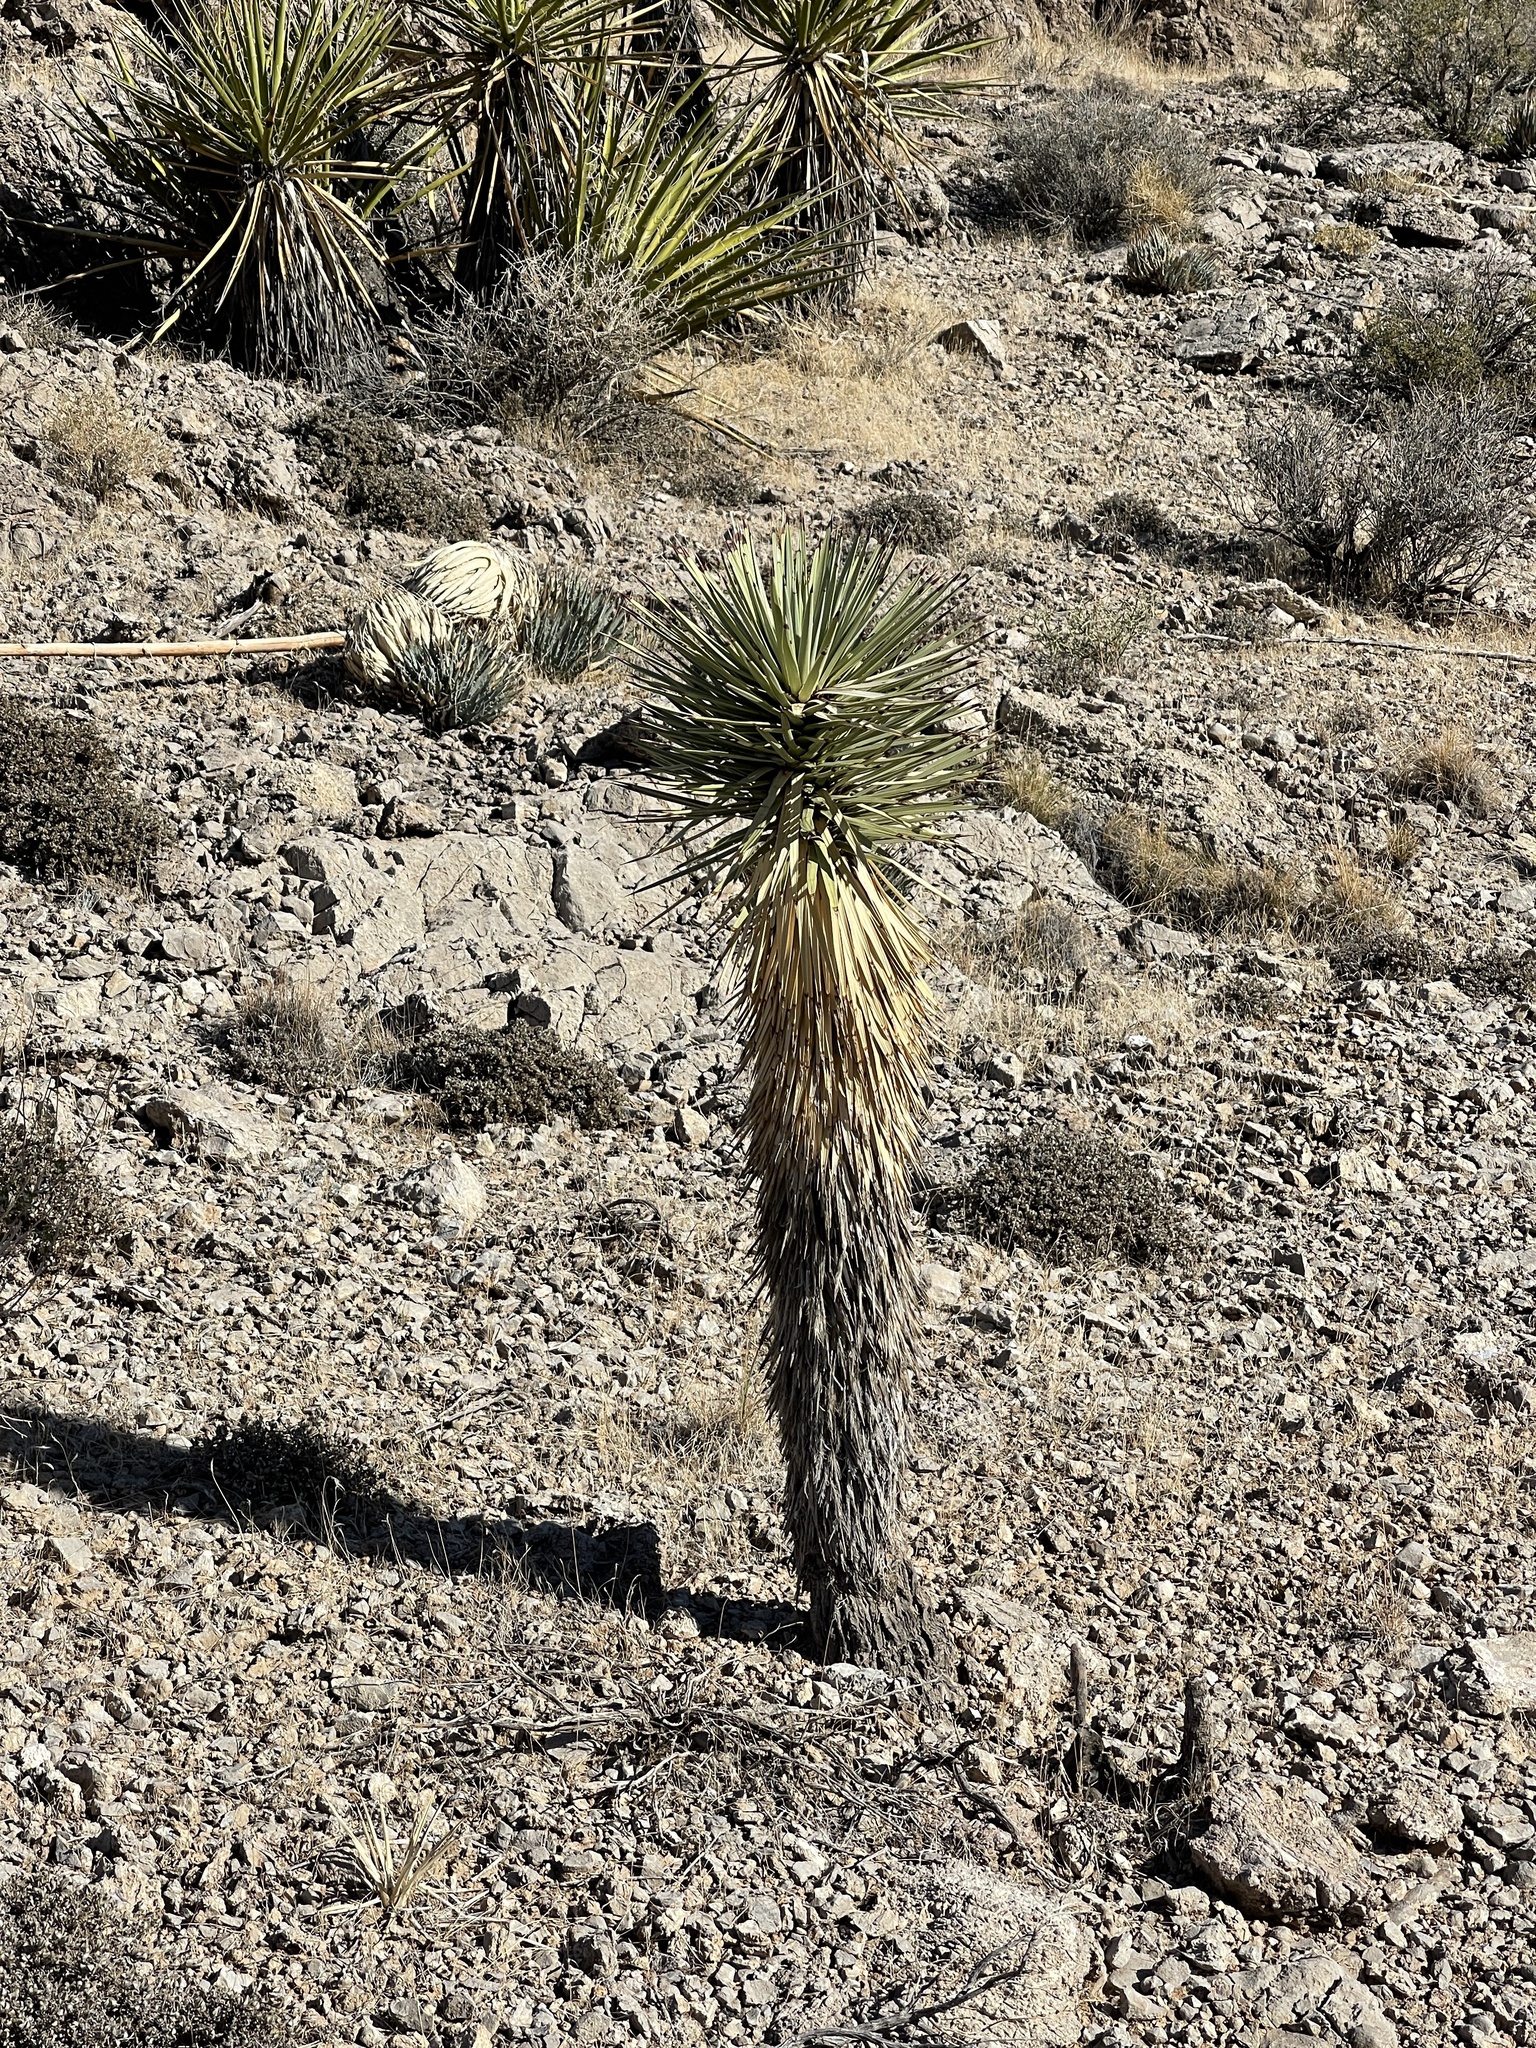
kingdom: Plantae
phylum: Tracheophyta
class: Liliopsida
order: Asparagales
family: Asparagaceae
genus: Yucca
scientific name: Yucca brevifolia
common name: Joshua tree
